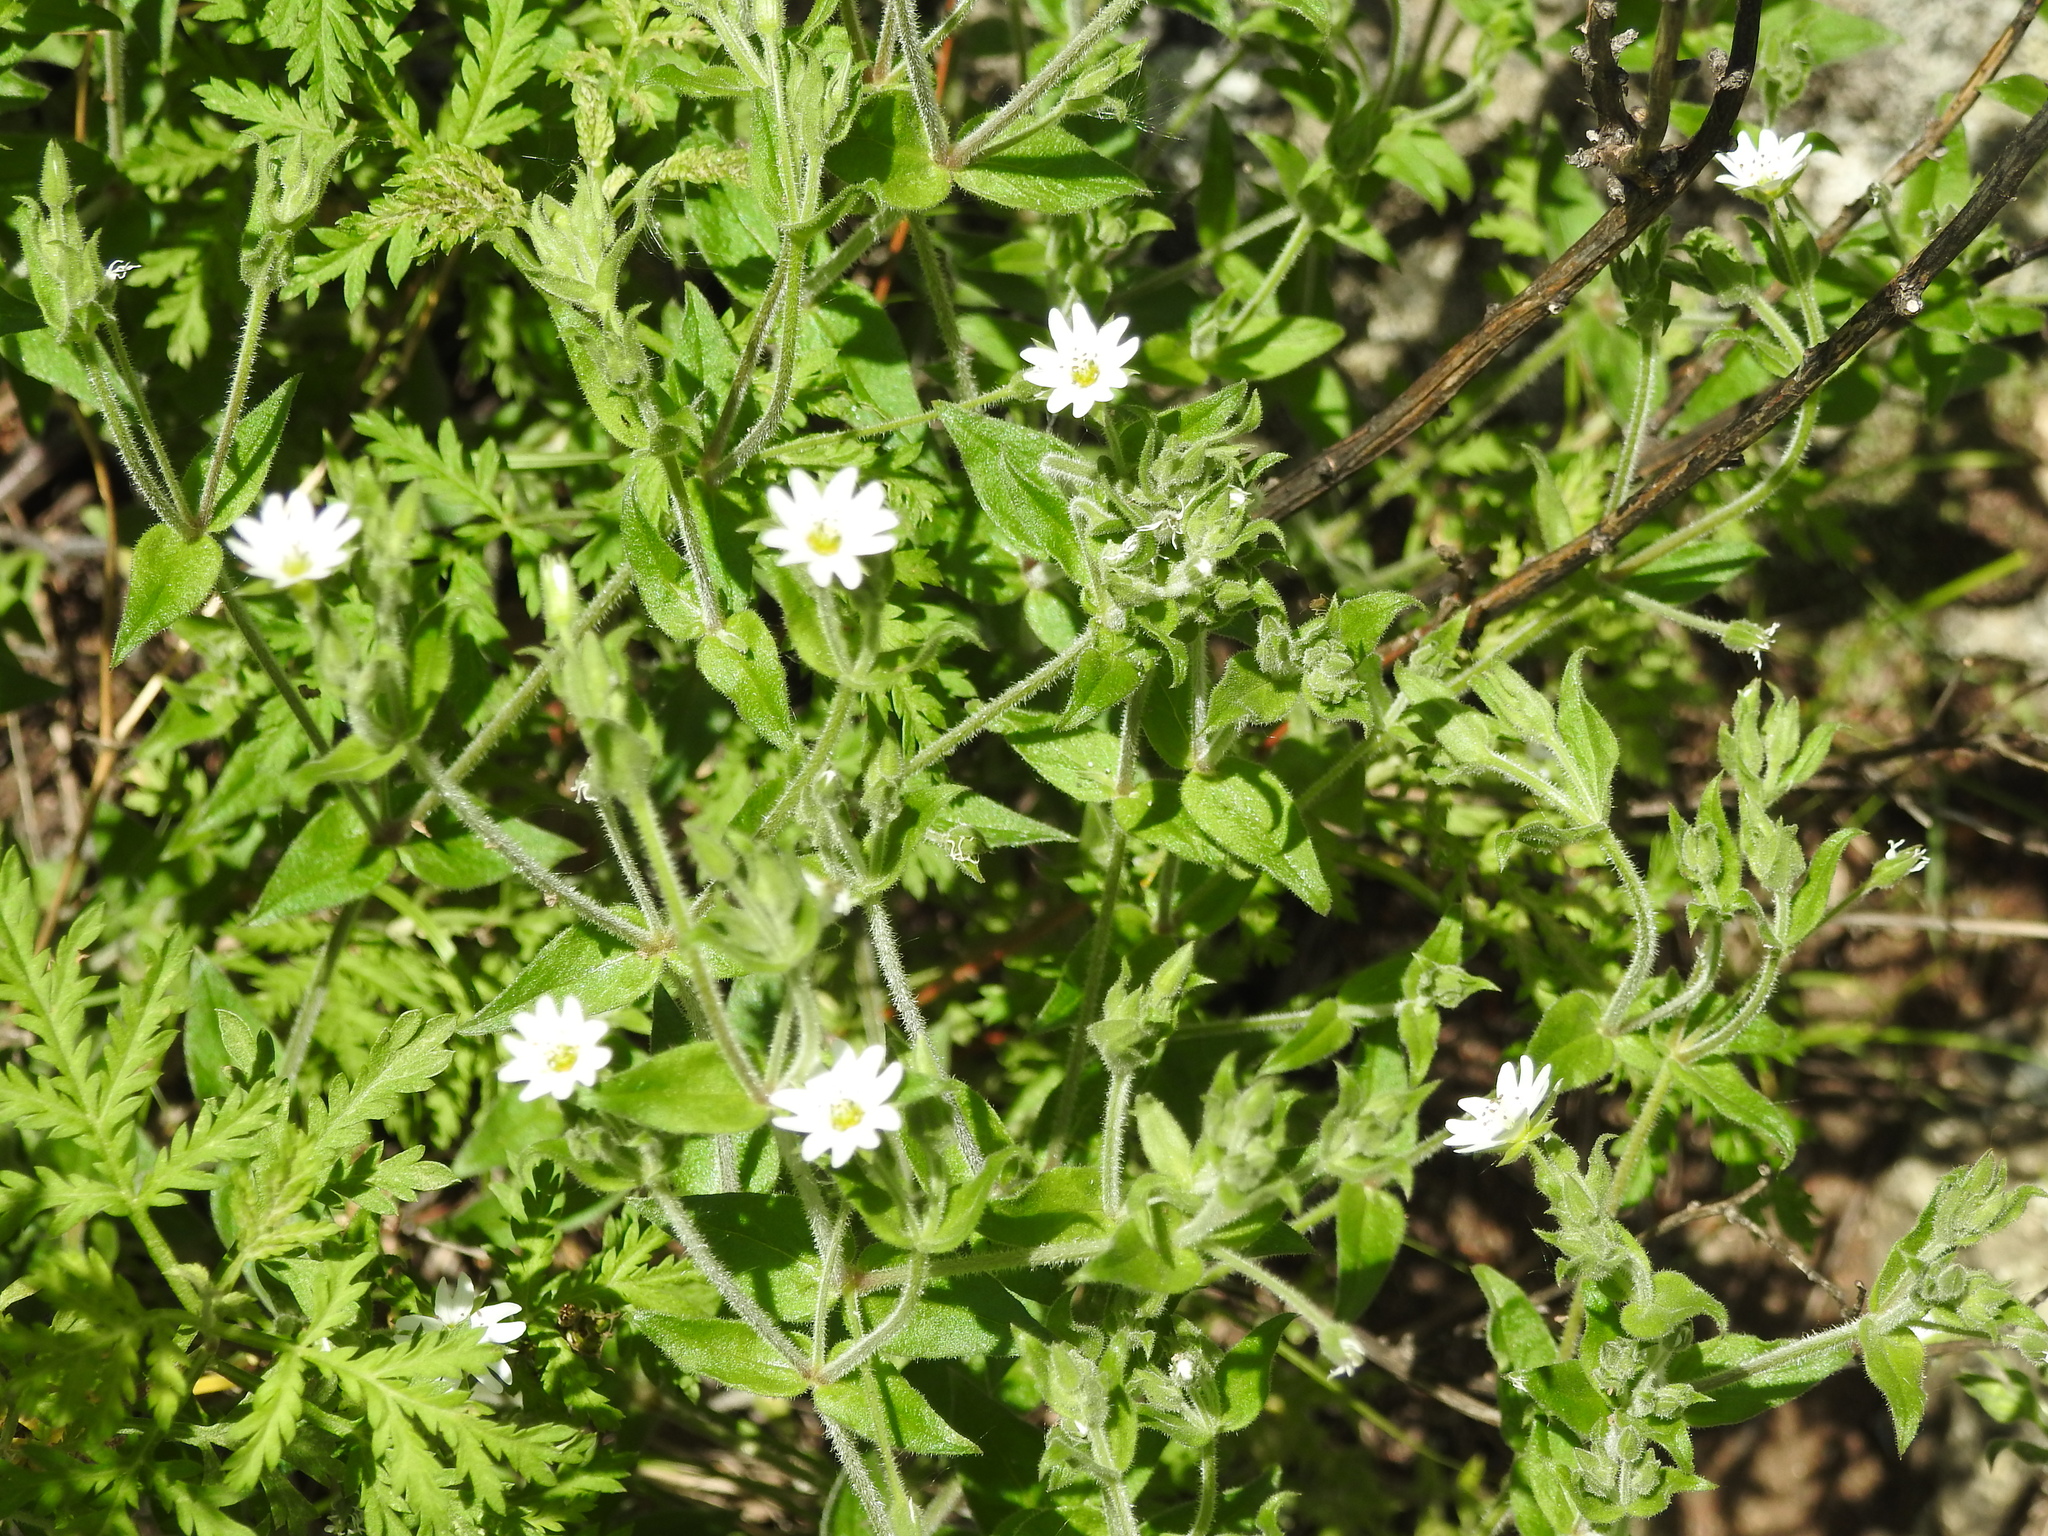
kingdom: Plantae
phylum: Tracheophyta
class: Magnoliopsida
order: Caryophyllales
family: Caryophyllaceae
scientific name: Caryophyllaceae
